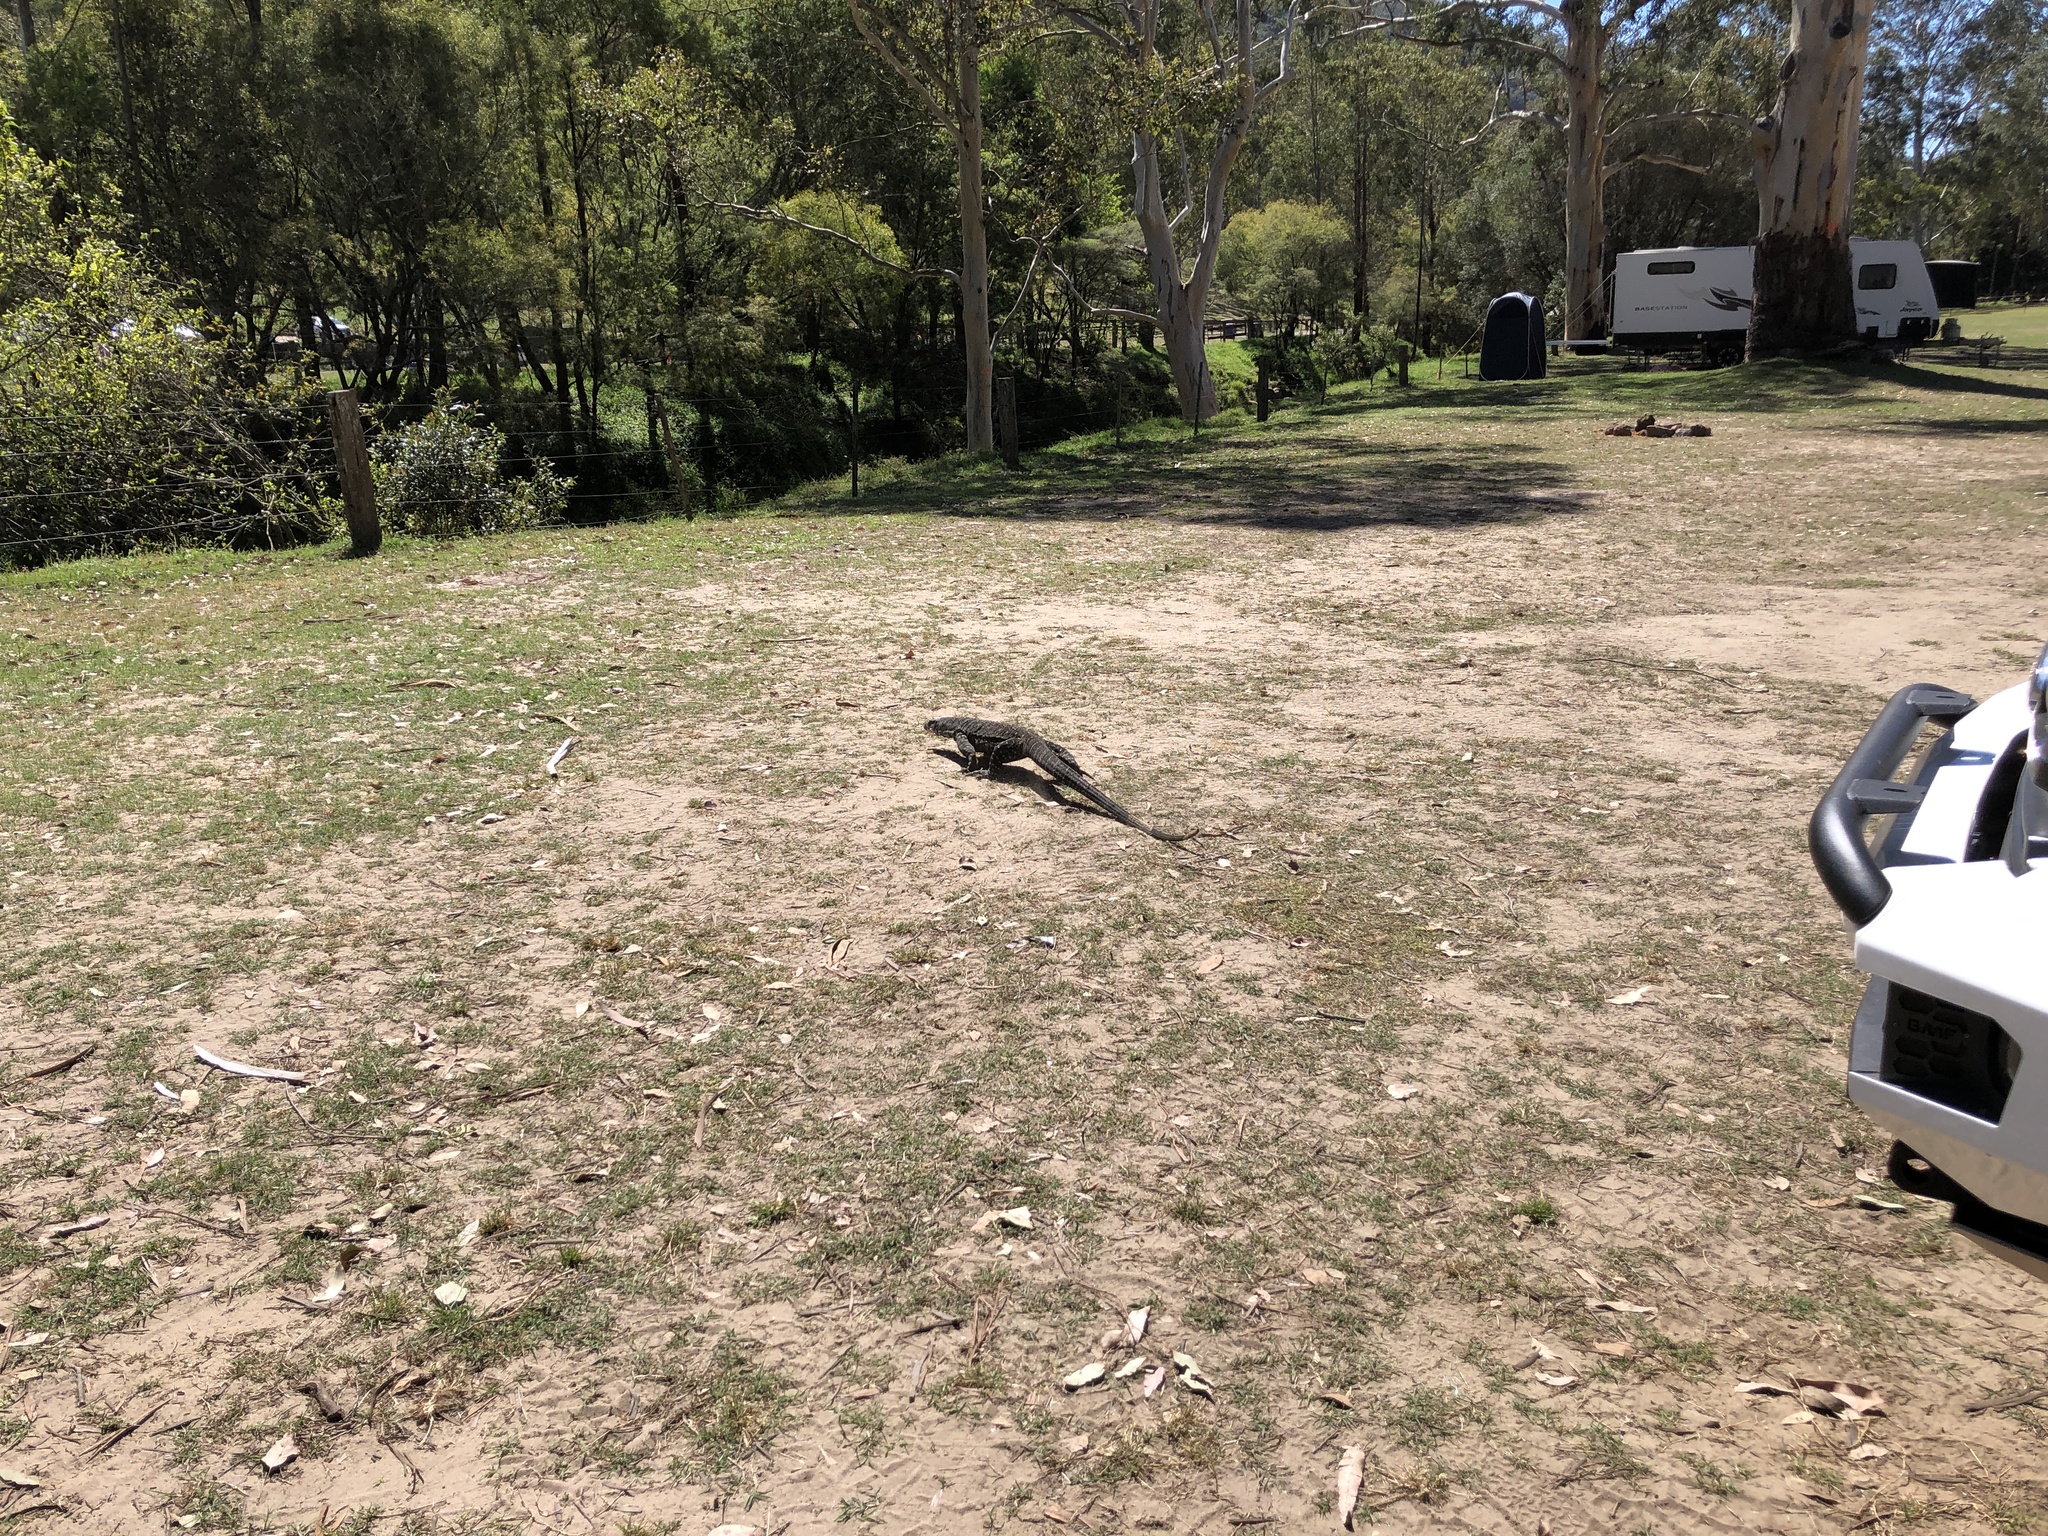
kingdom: Animalia
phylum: Chordata
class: Squamata
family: Varanidae
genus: Varanus
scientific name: Varanus varius
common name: Lace monitor
